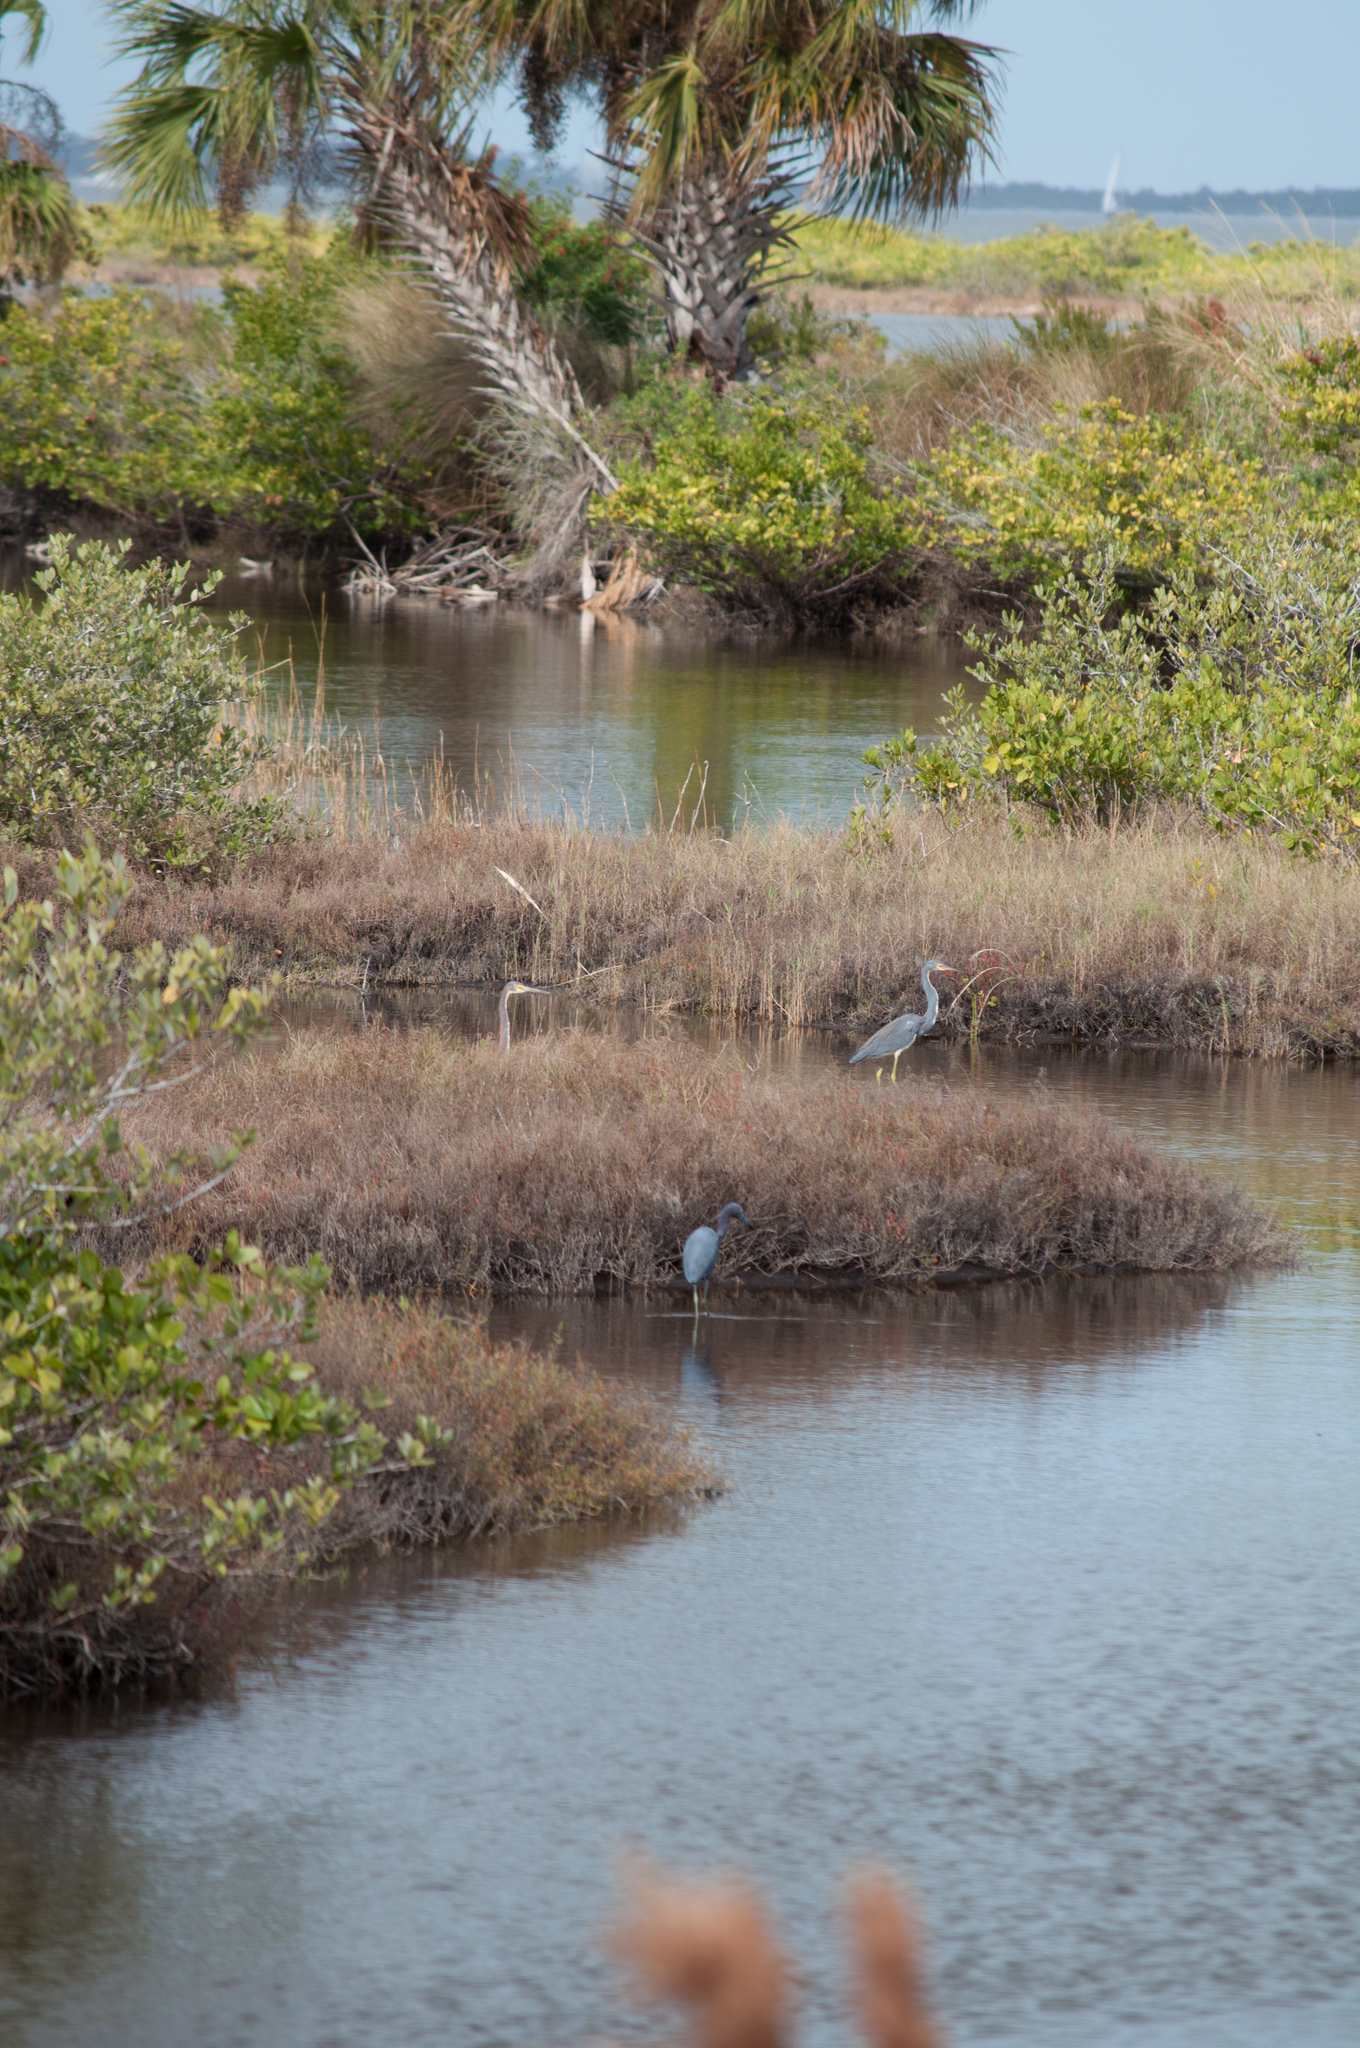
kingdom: Animalia
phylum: Chordata
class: Aves
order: Pelecaniformes
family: Ardeidae
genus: Egretta
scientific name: Egretta tricolor
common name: Tricolored heron
